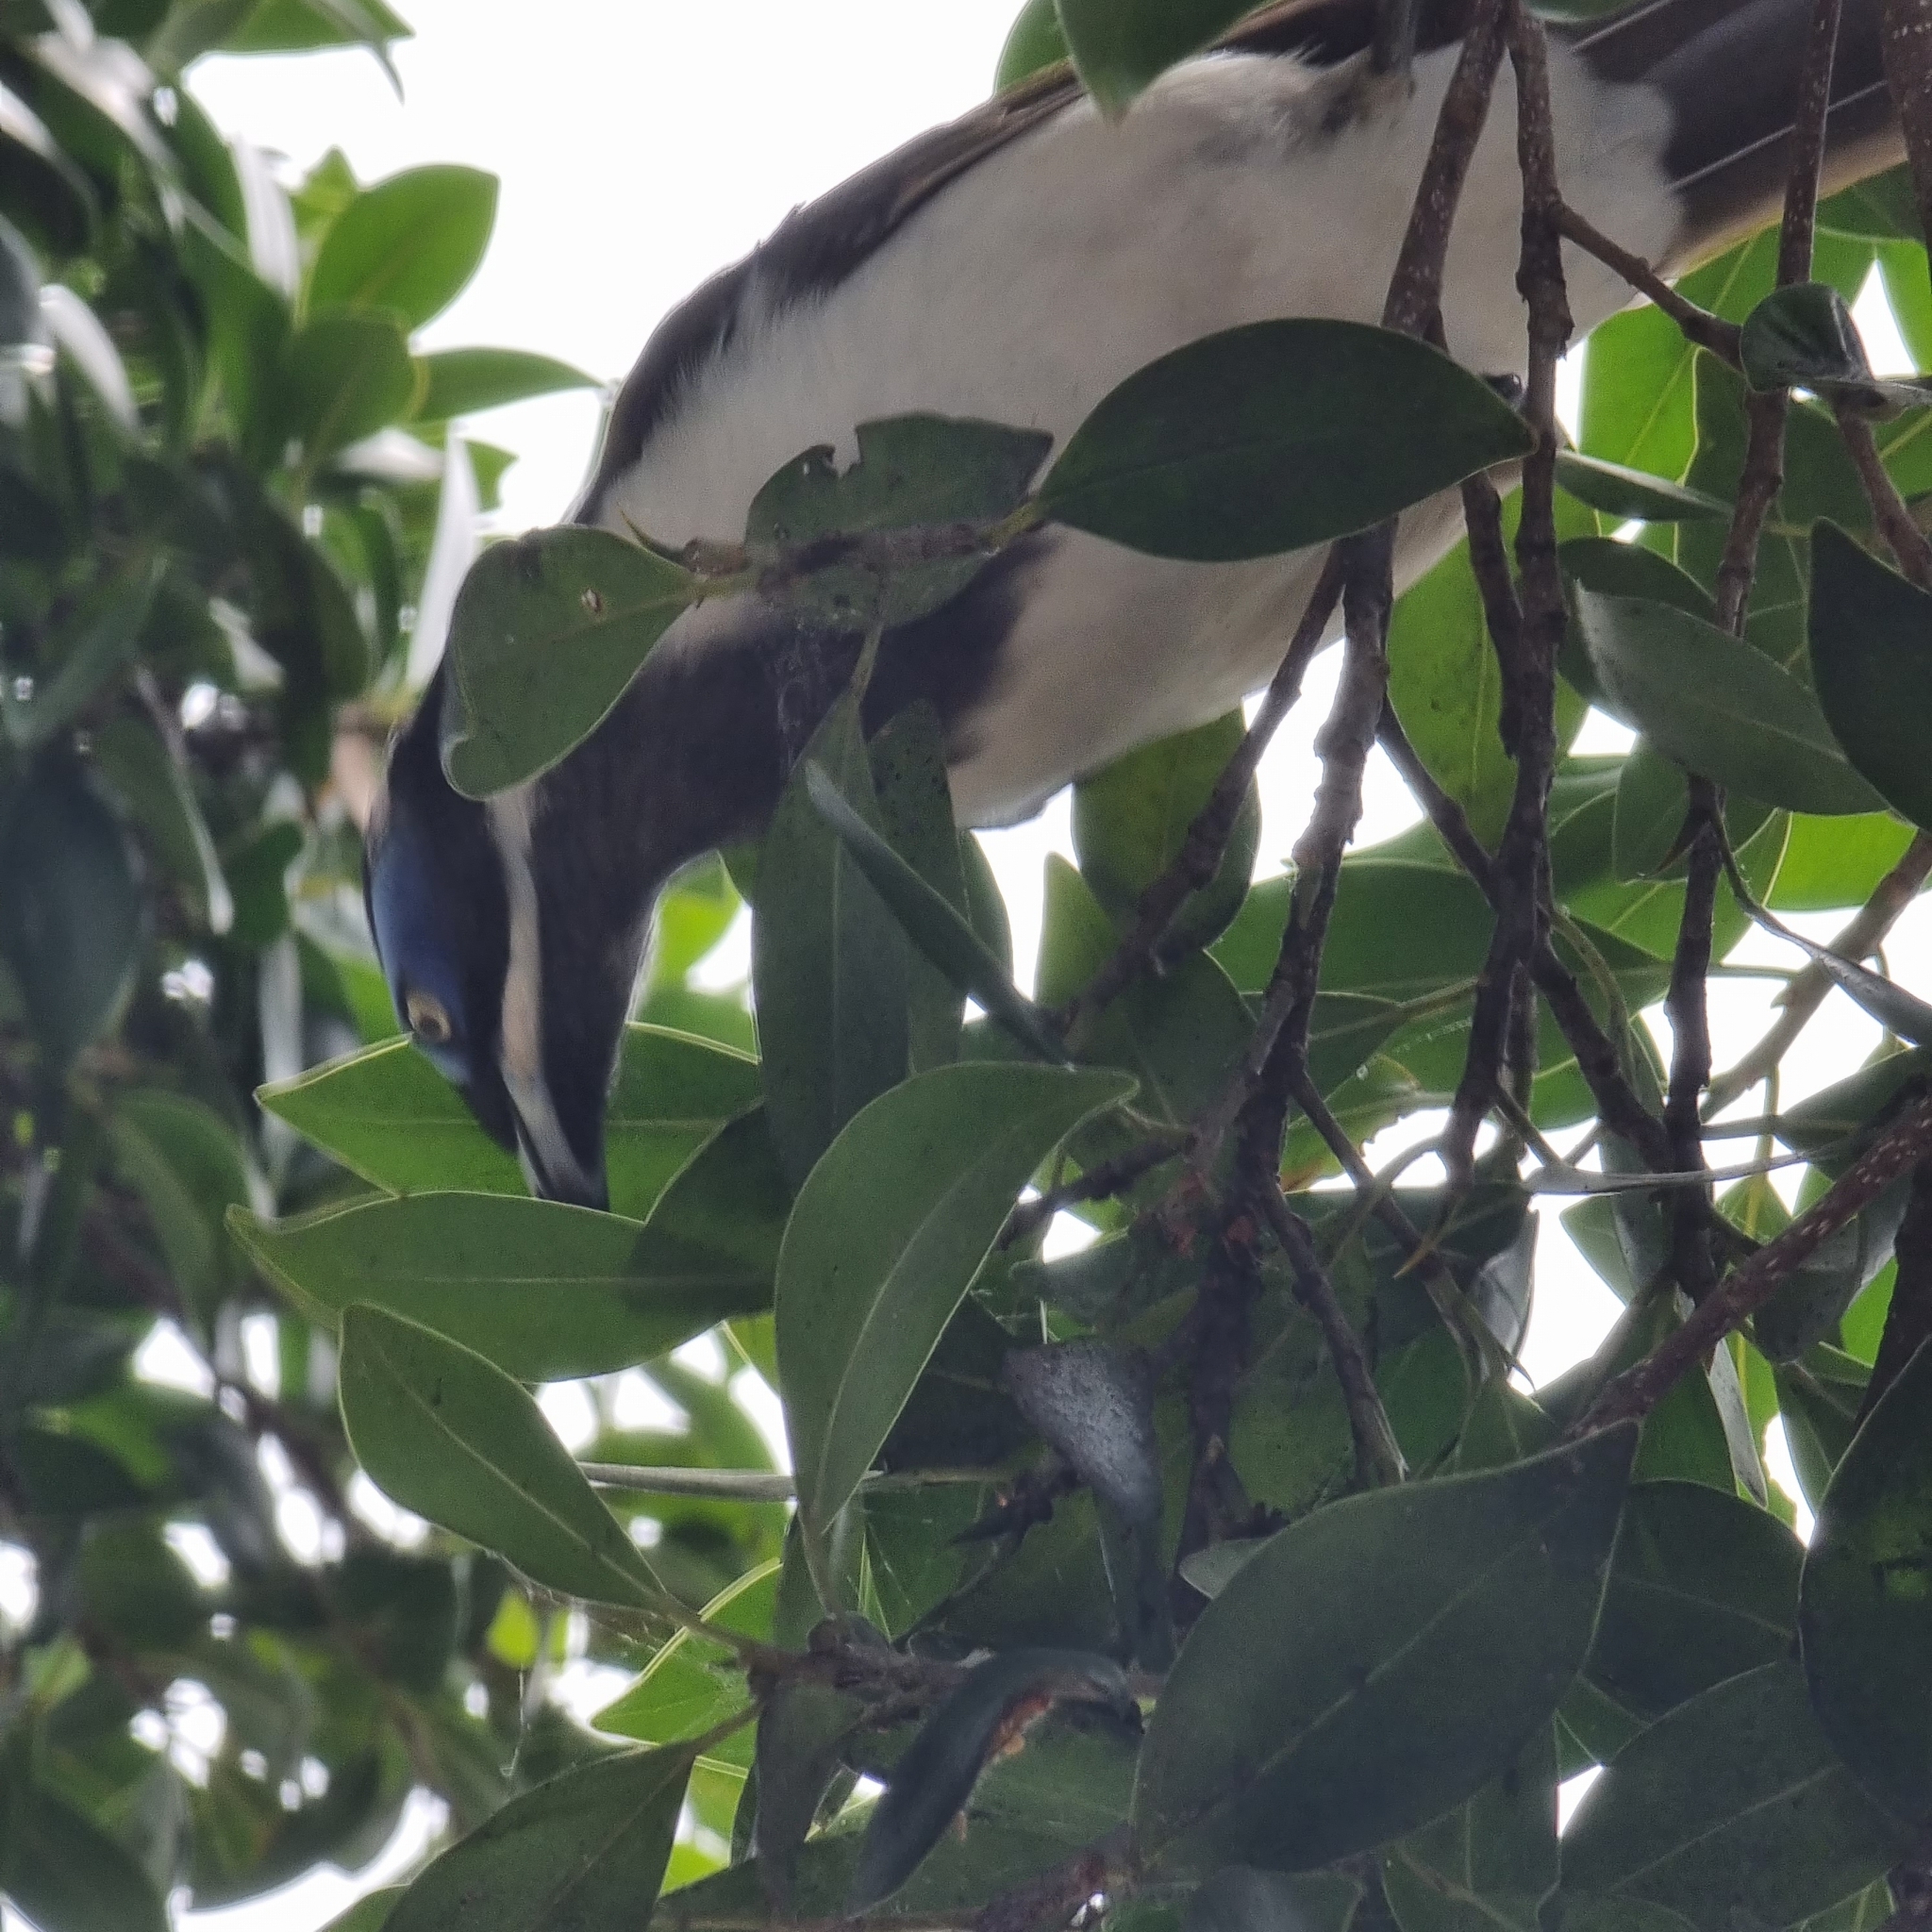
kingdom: Animalia
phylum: Chordata
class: Aves
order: Passeriformes
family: Meliphagidae
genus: Entomyzon
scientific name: Entomyzon cyanotis
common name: Blue-faced honeyeater
